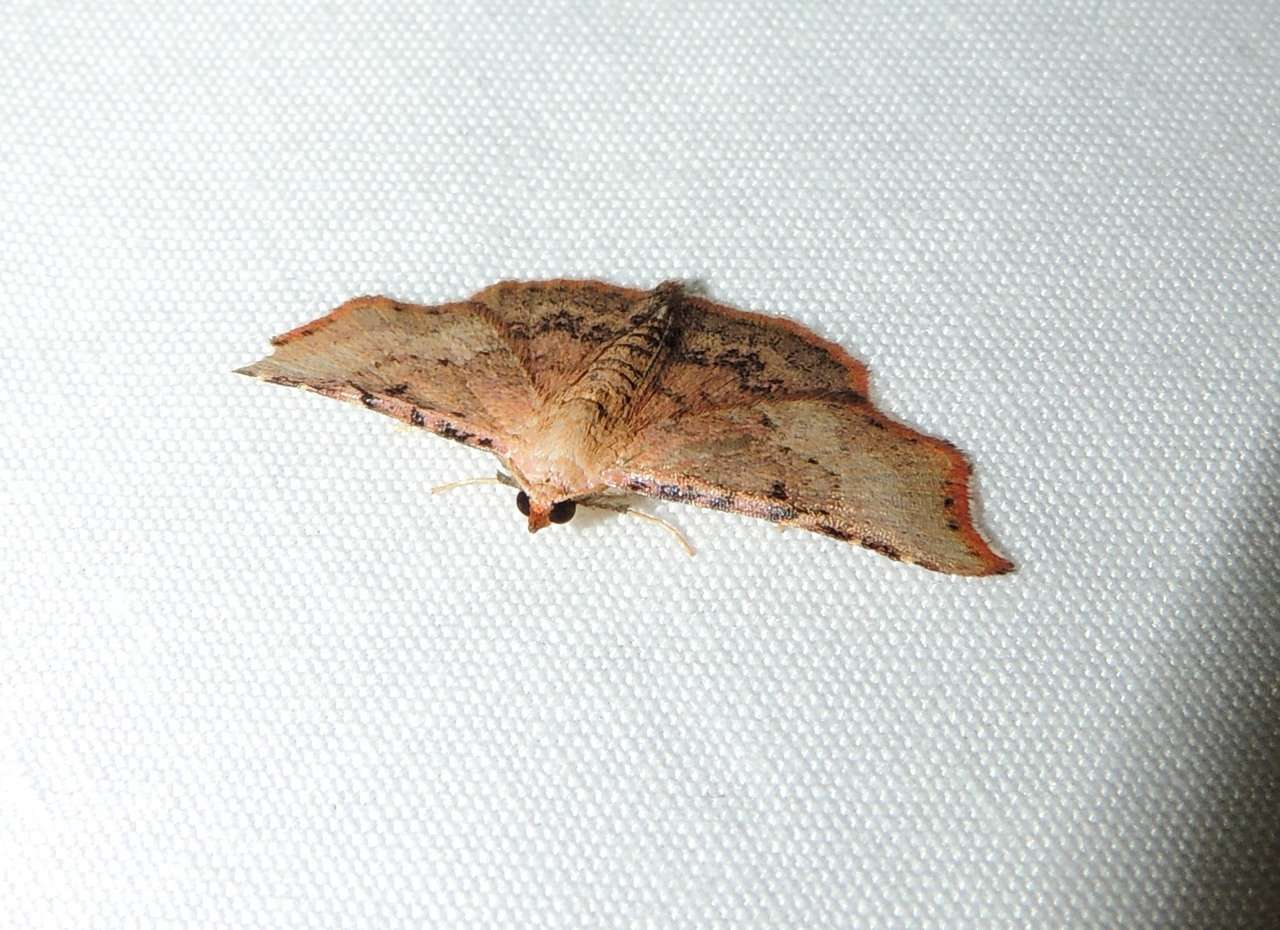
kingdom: Animalia
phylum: Arthropoda
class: Insecta
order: Lepidoptera
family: Erebidae
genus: Corgatha
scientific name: Corgatha dipyra
